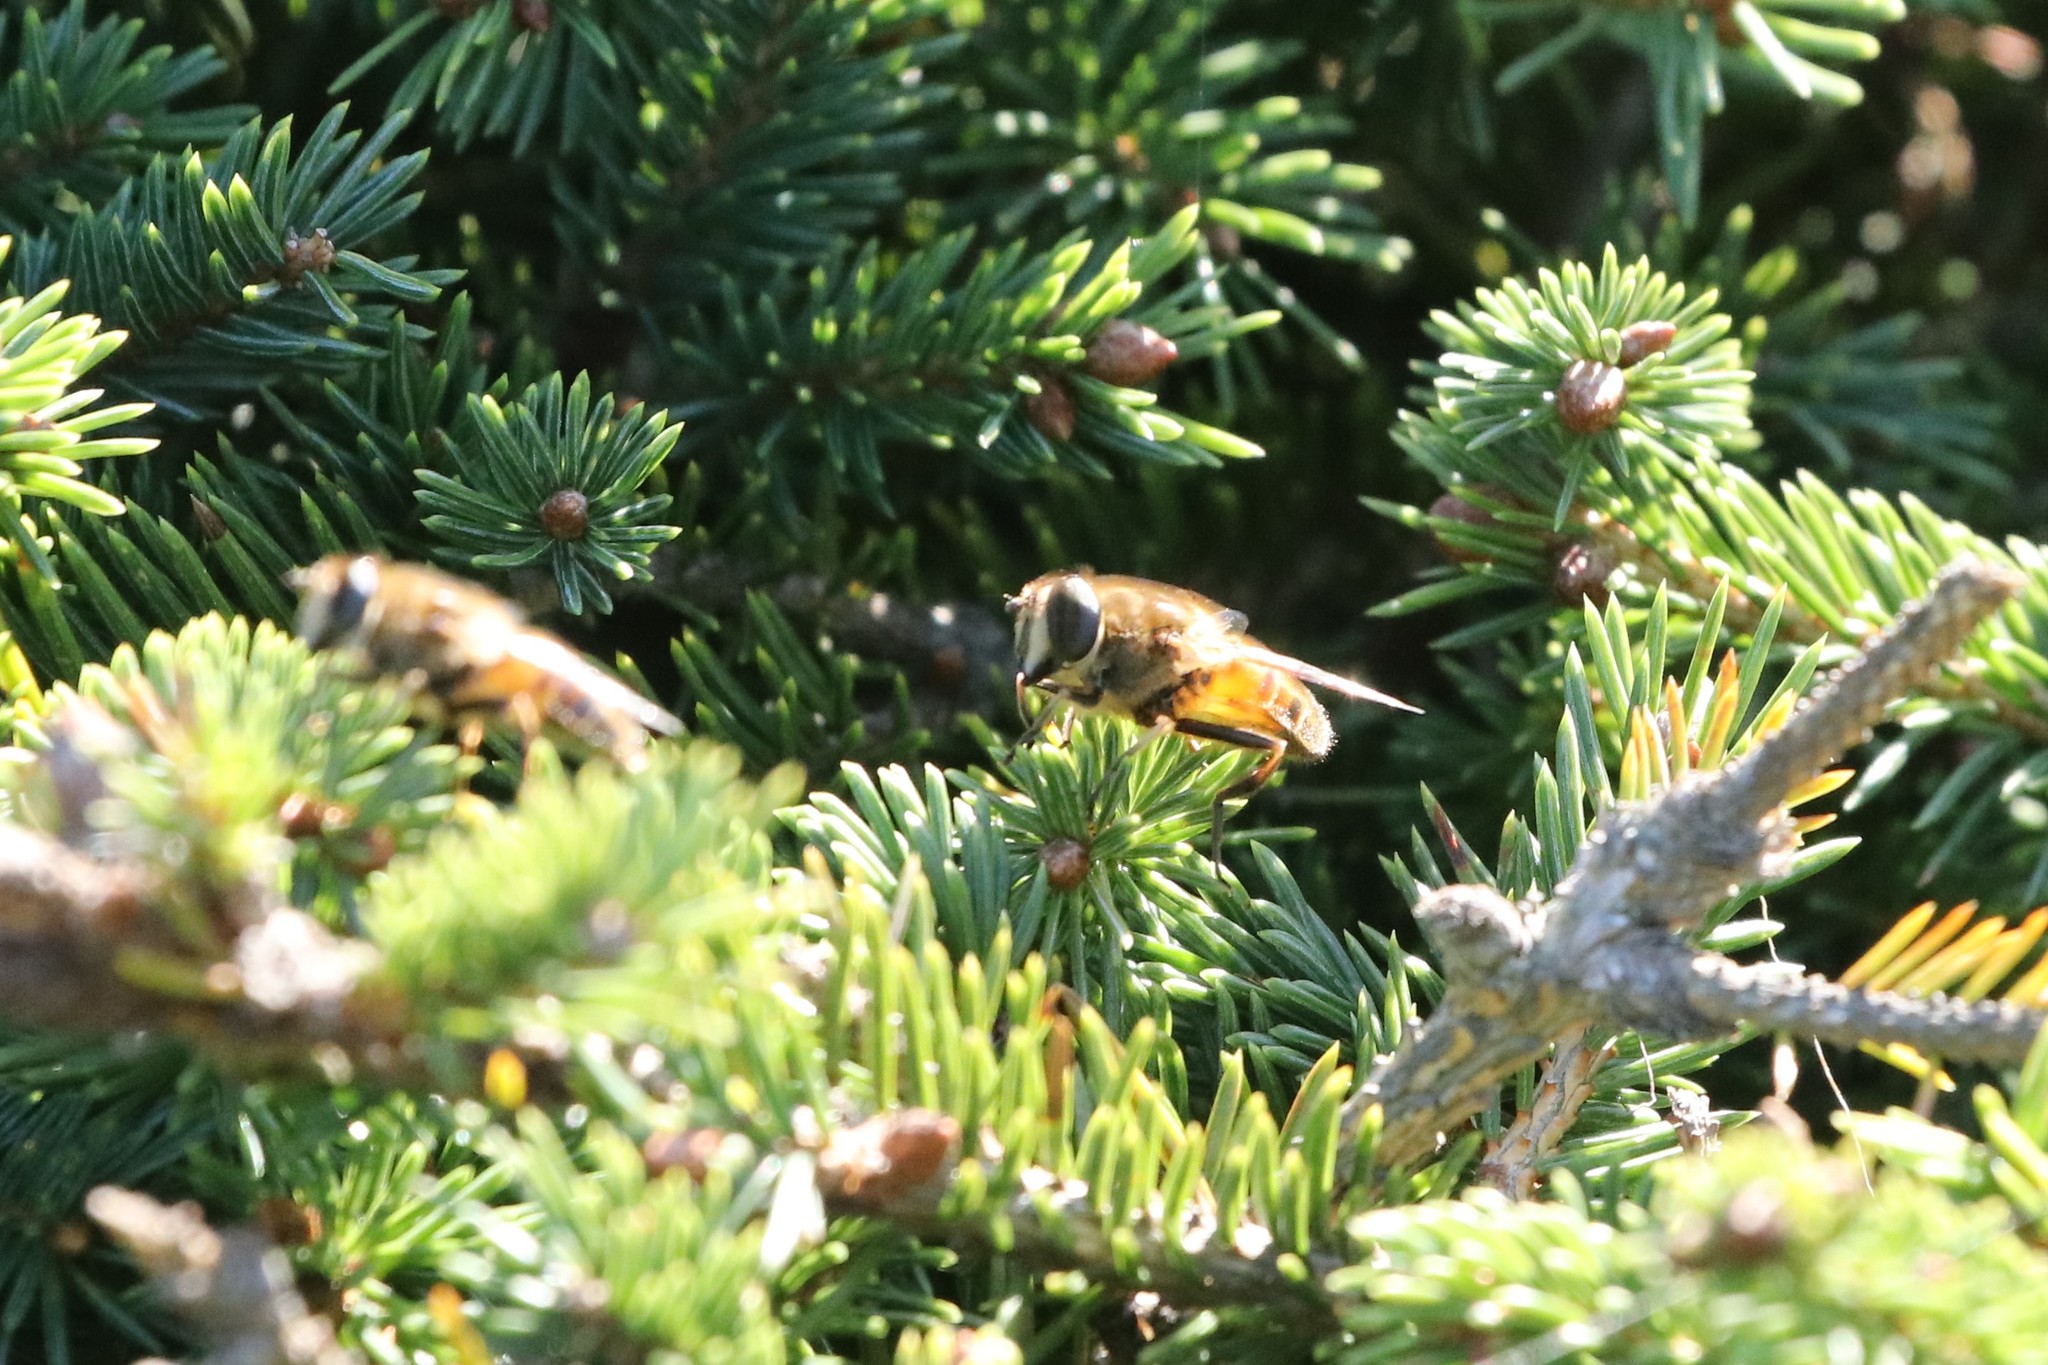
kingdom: Animalia
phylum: Arthropoda
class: Insecta
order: Diptera
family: Syrphidae
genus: Eristalis
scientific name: Eristalis tenax
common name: Drone fly
